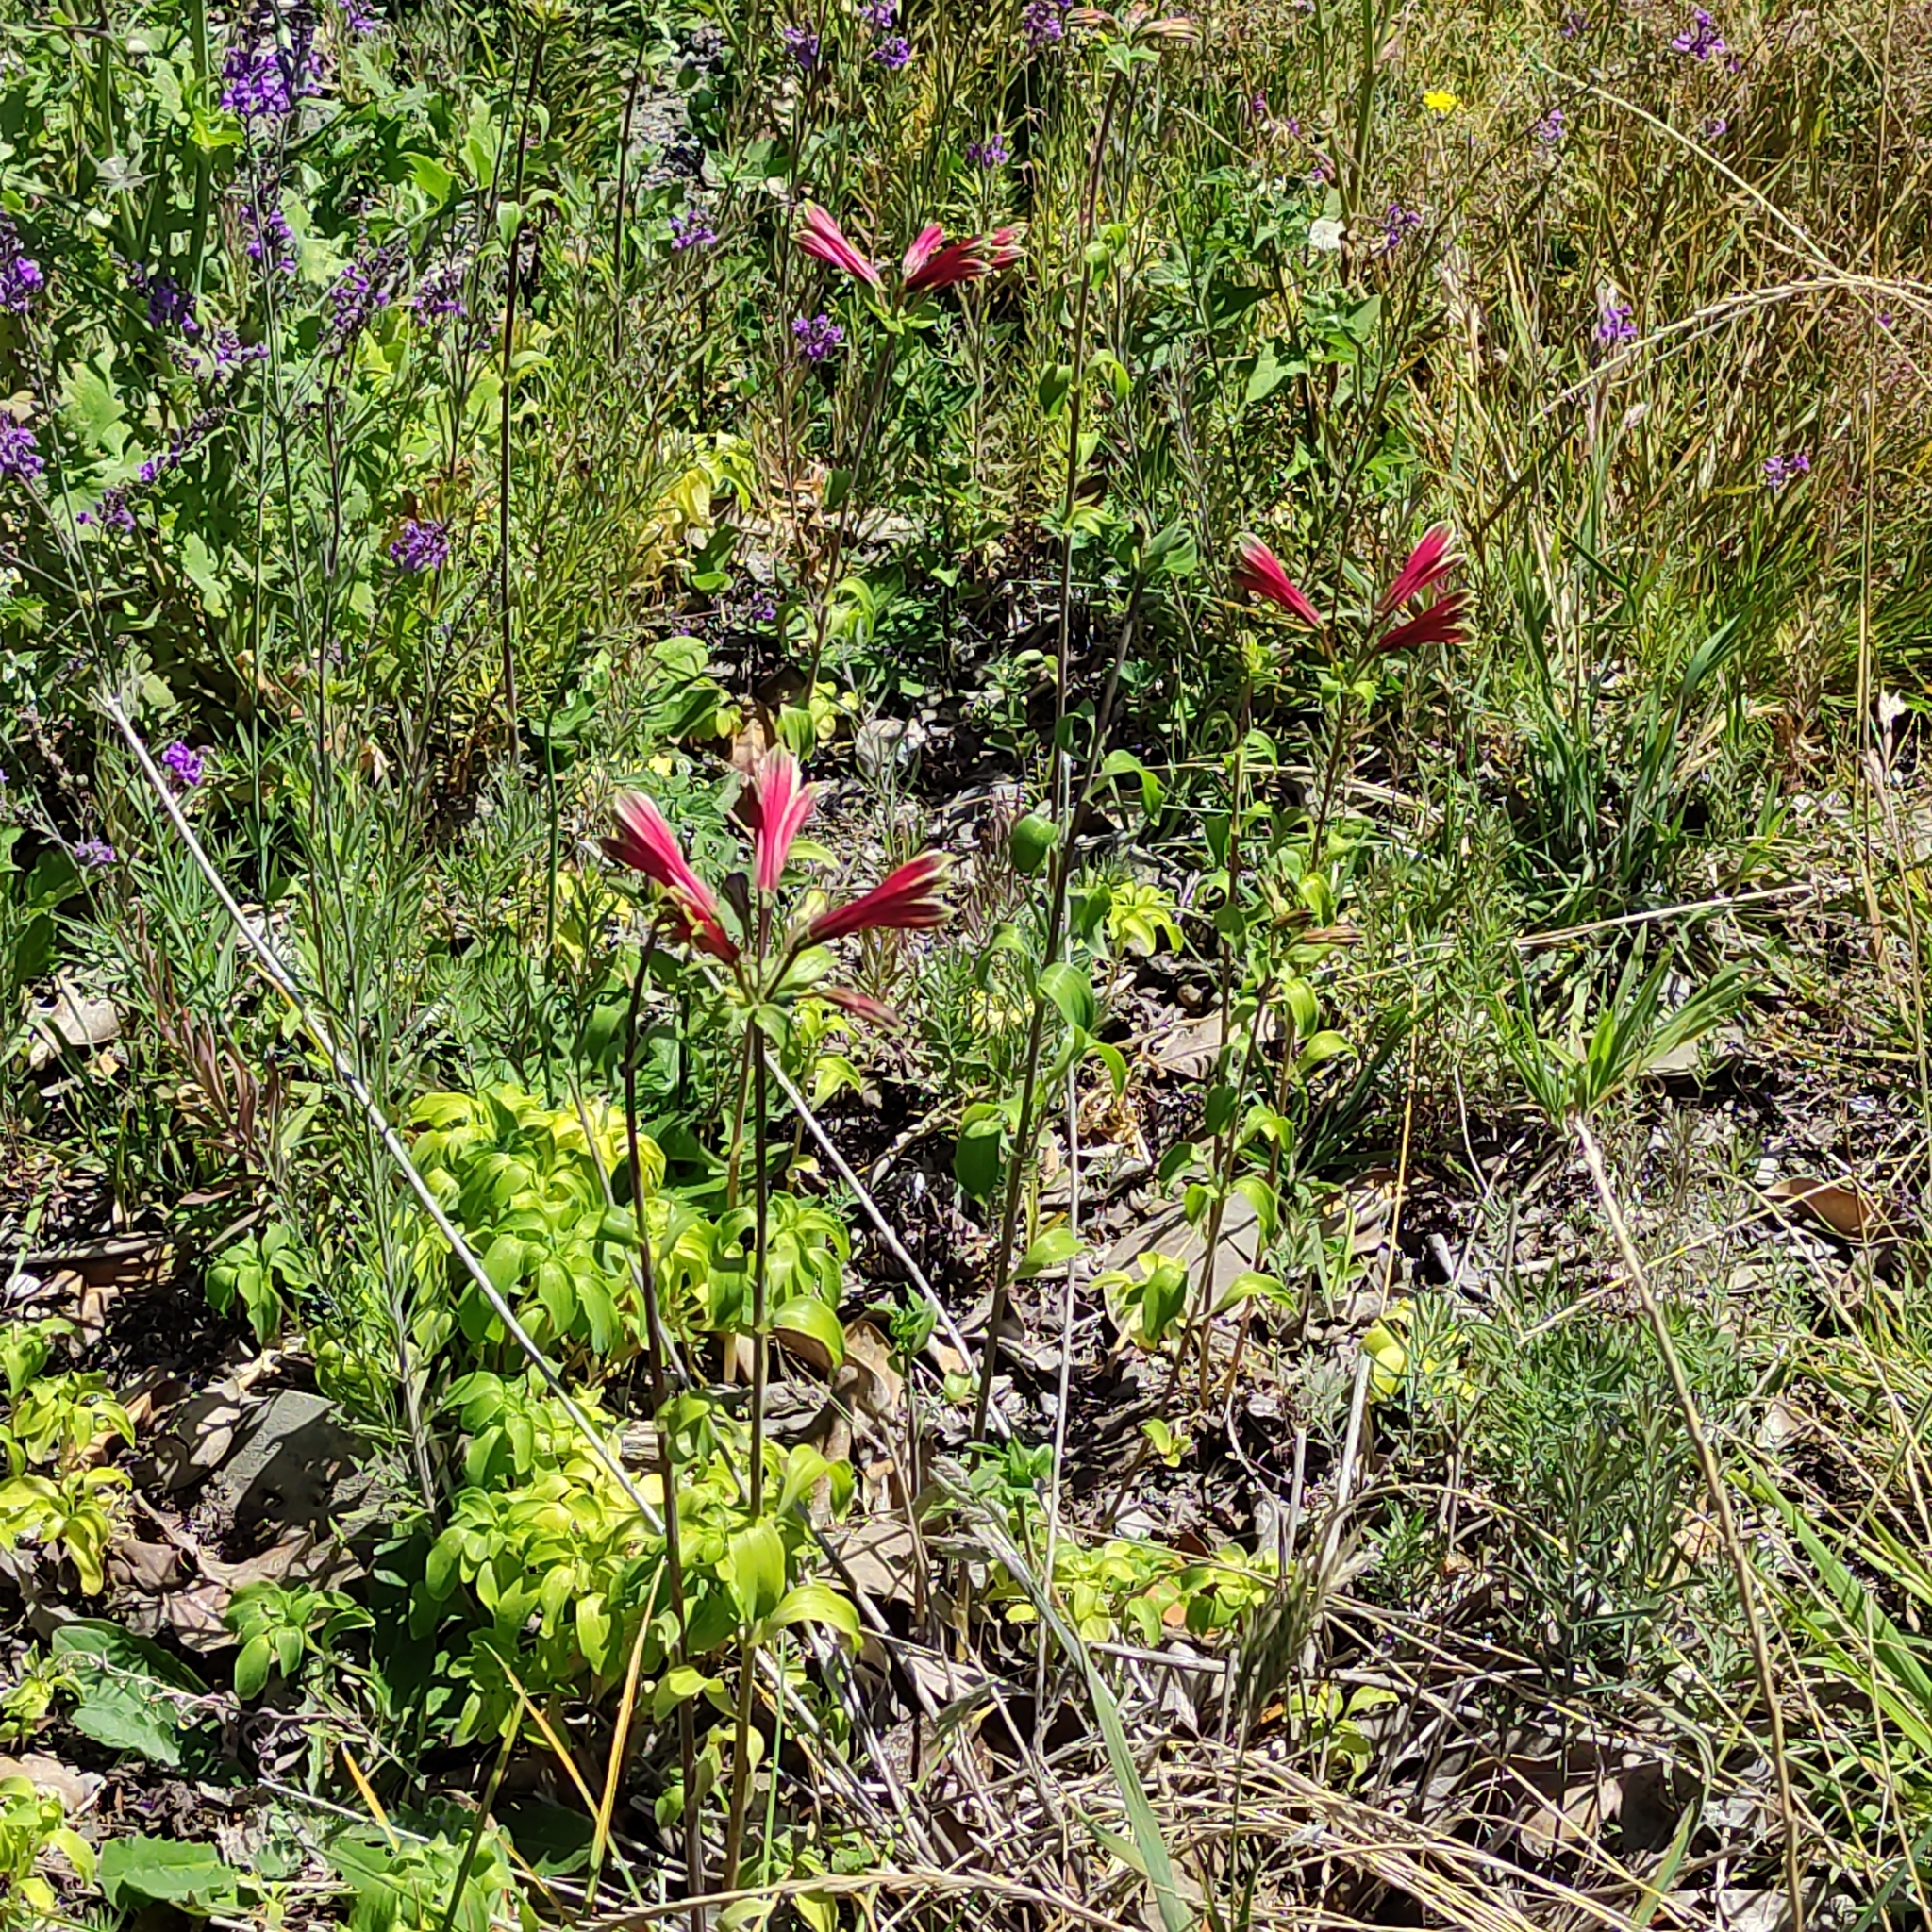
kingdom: Plantae
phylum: Tracheophyta
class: Liliopsida
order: Liliales
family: Alstroemeriaceae
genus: Alstroemeria
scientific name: Alstroemeria psittacina
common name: Peruvian-lily
